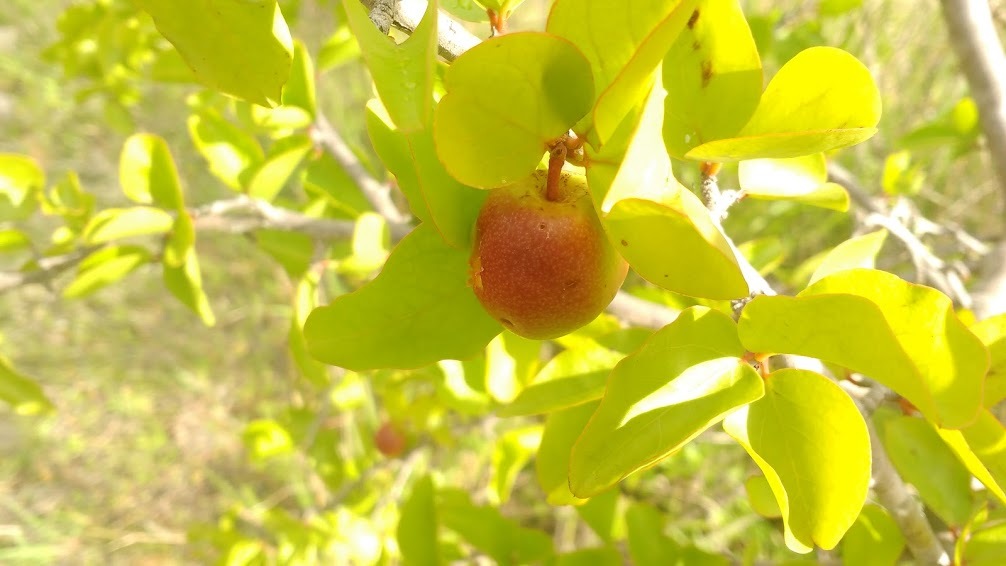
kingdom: Plantae
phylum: Tracheophyta
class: Magnoliopsida
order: Santalales
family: Ximeniaceae
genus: Ximenia
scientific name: Ximenia americana
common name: Tallowwood
